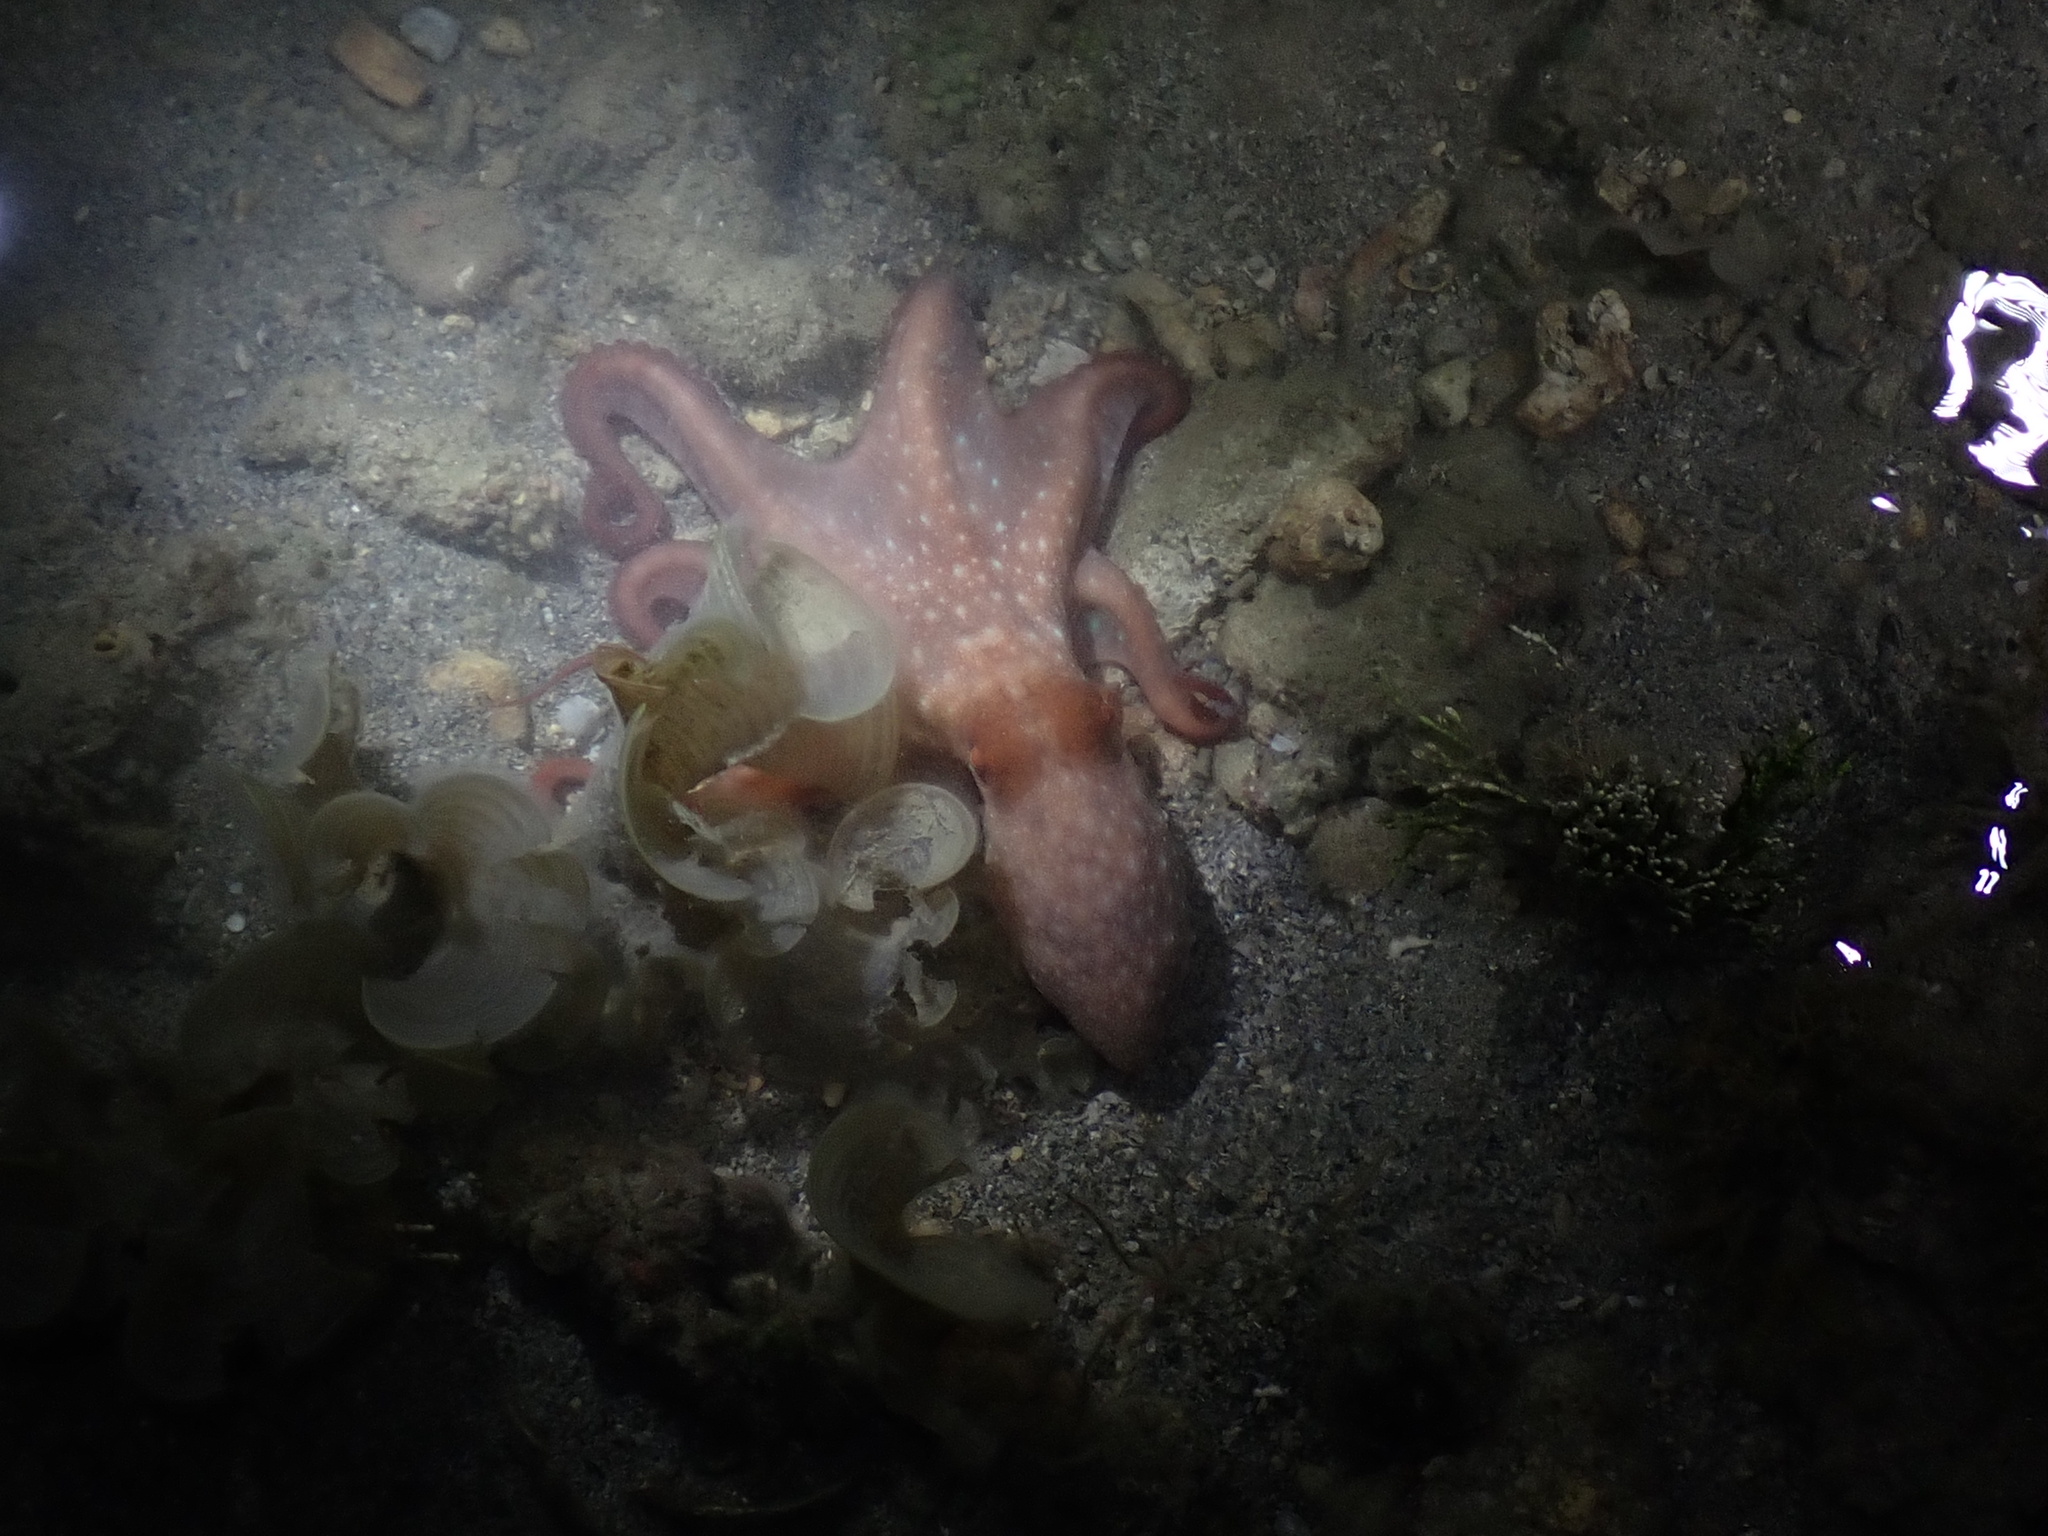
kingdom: Animalia
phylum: Mollusca
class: Cephalopoda
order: Octopoda
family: Octopodidae
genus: Callistoctopus
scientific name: Callistoctopus dierythraeus
